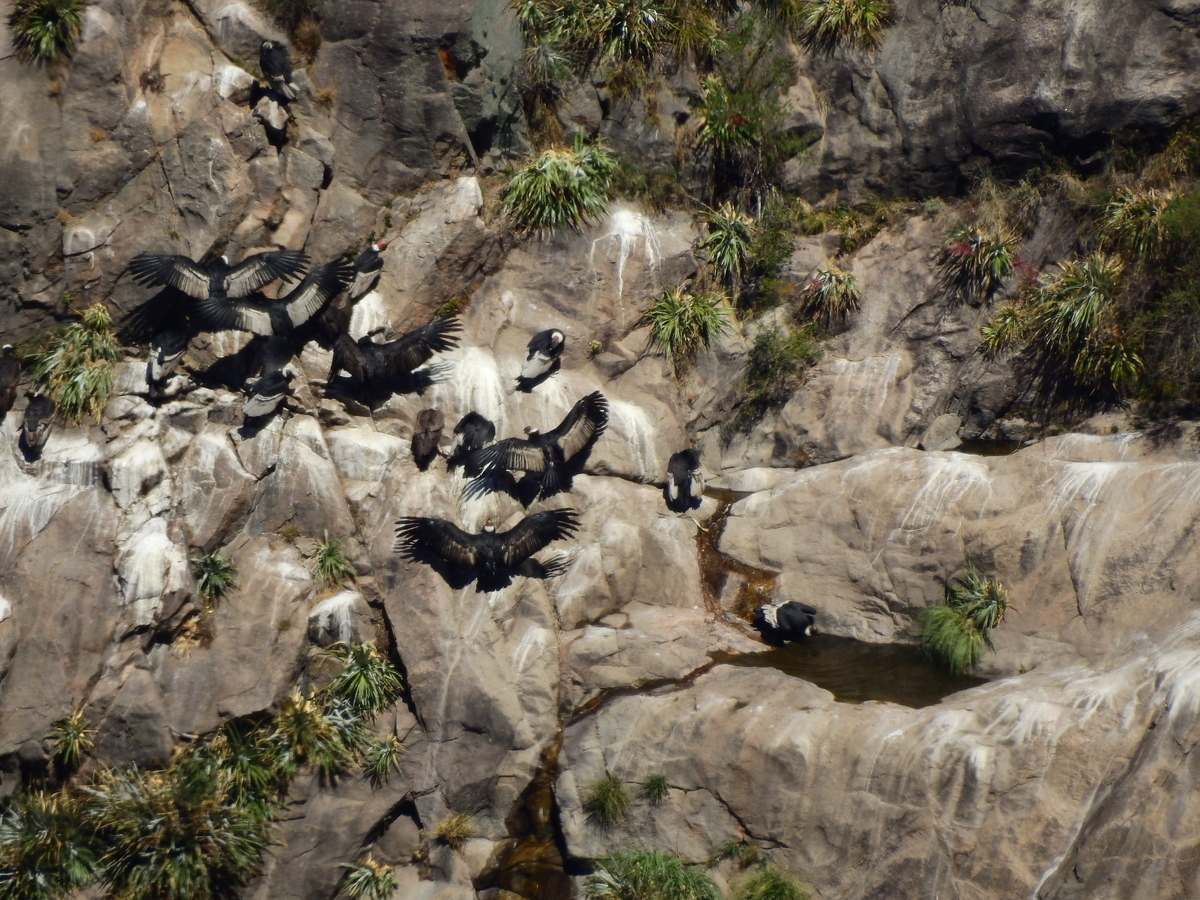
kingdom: Animalia
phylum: Chordata
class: Aves
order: Accipitriformes
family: Cathartidae
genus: Vultur
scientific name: Vultur gryphus
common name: Andean condor
